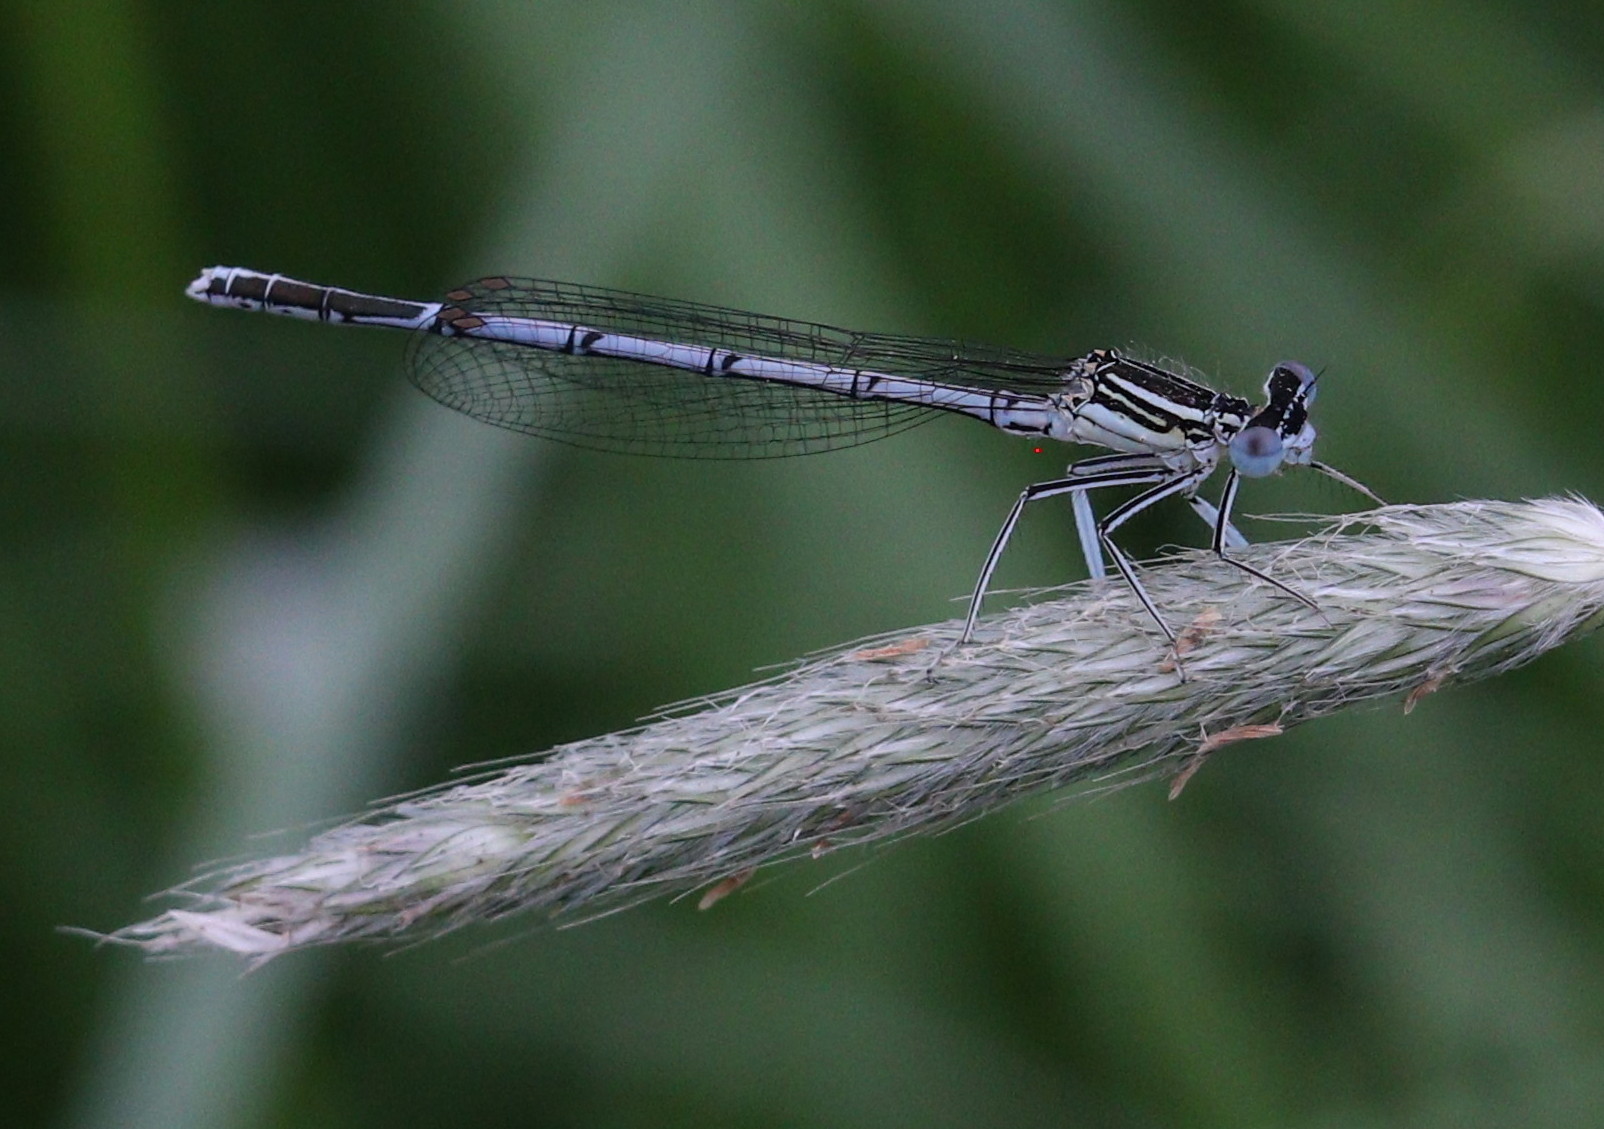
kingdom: Animalia
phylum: Arthropoda
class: Insecta
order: Odonata
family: Platycnemididae
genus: Platycnemis
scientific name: Platycnemis pennipes
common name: White-legged damselfly
